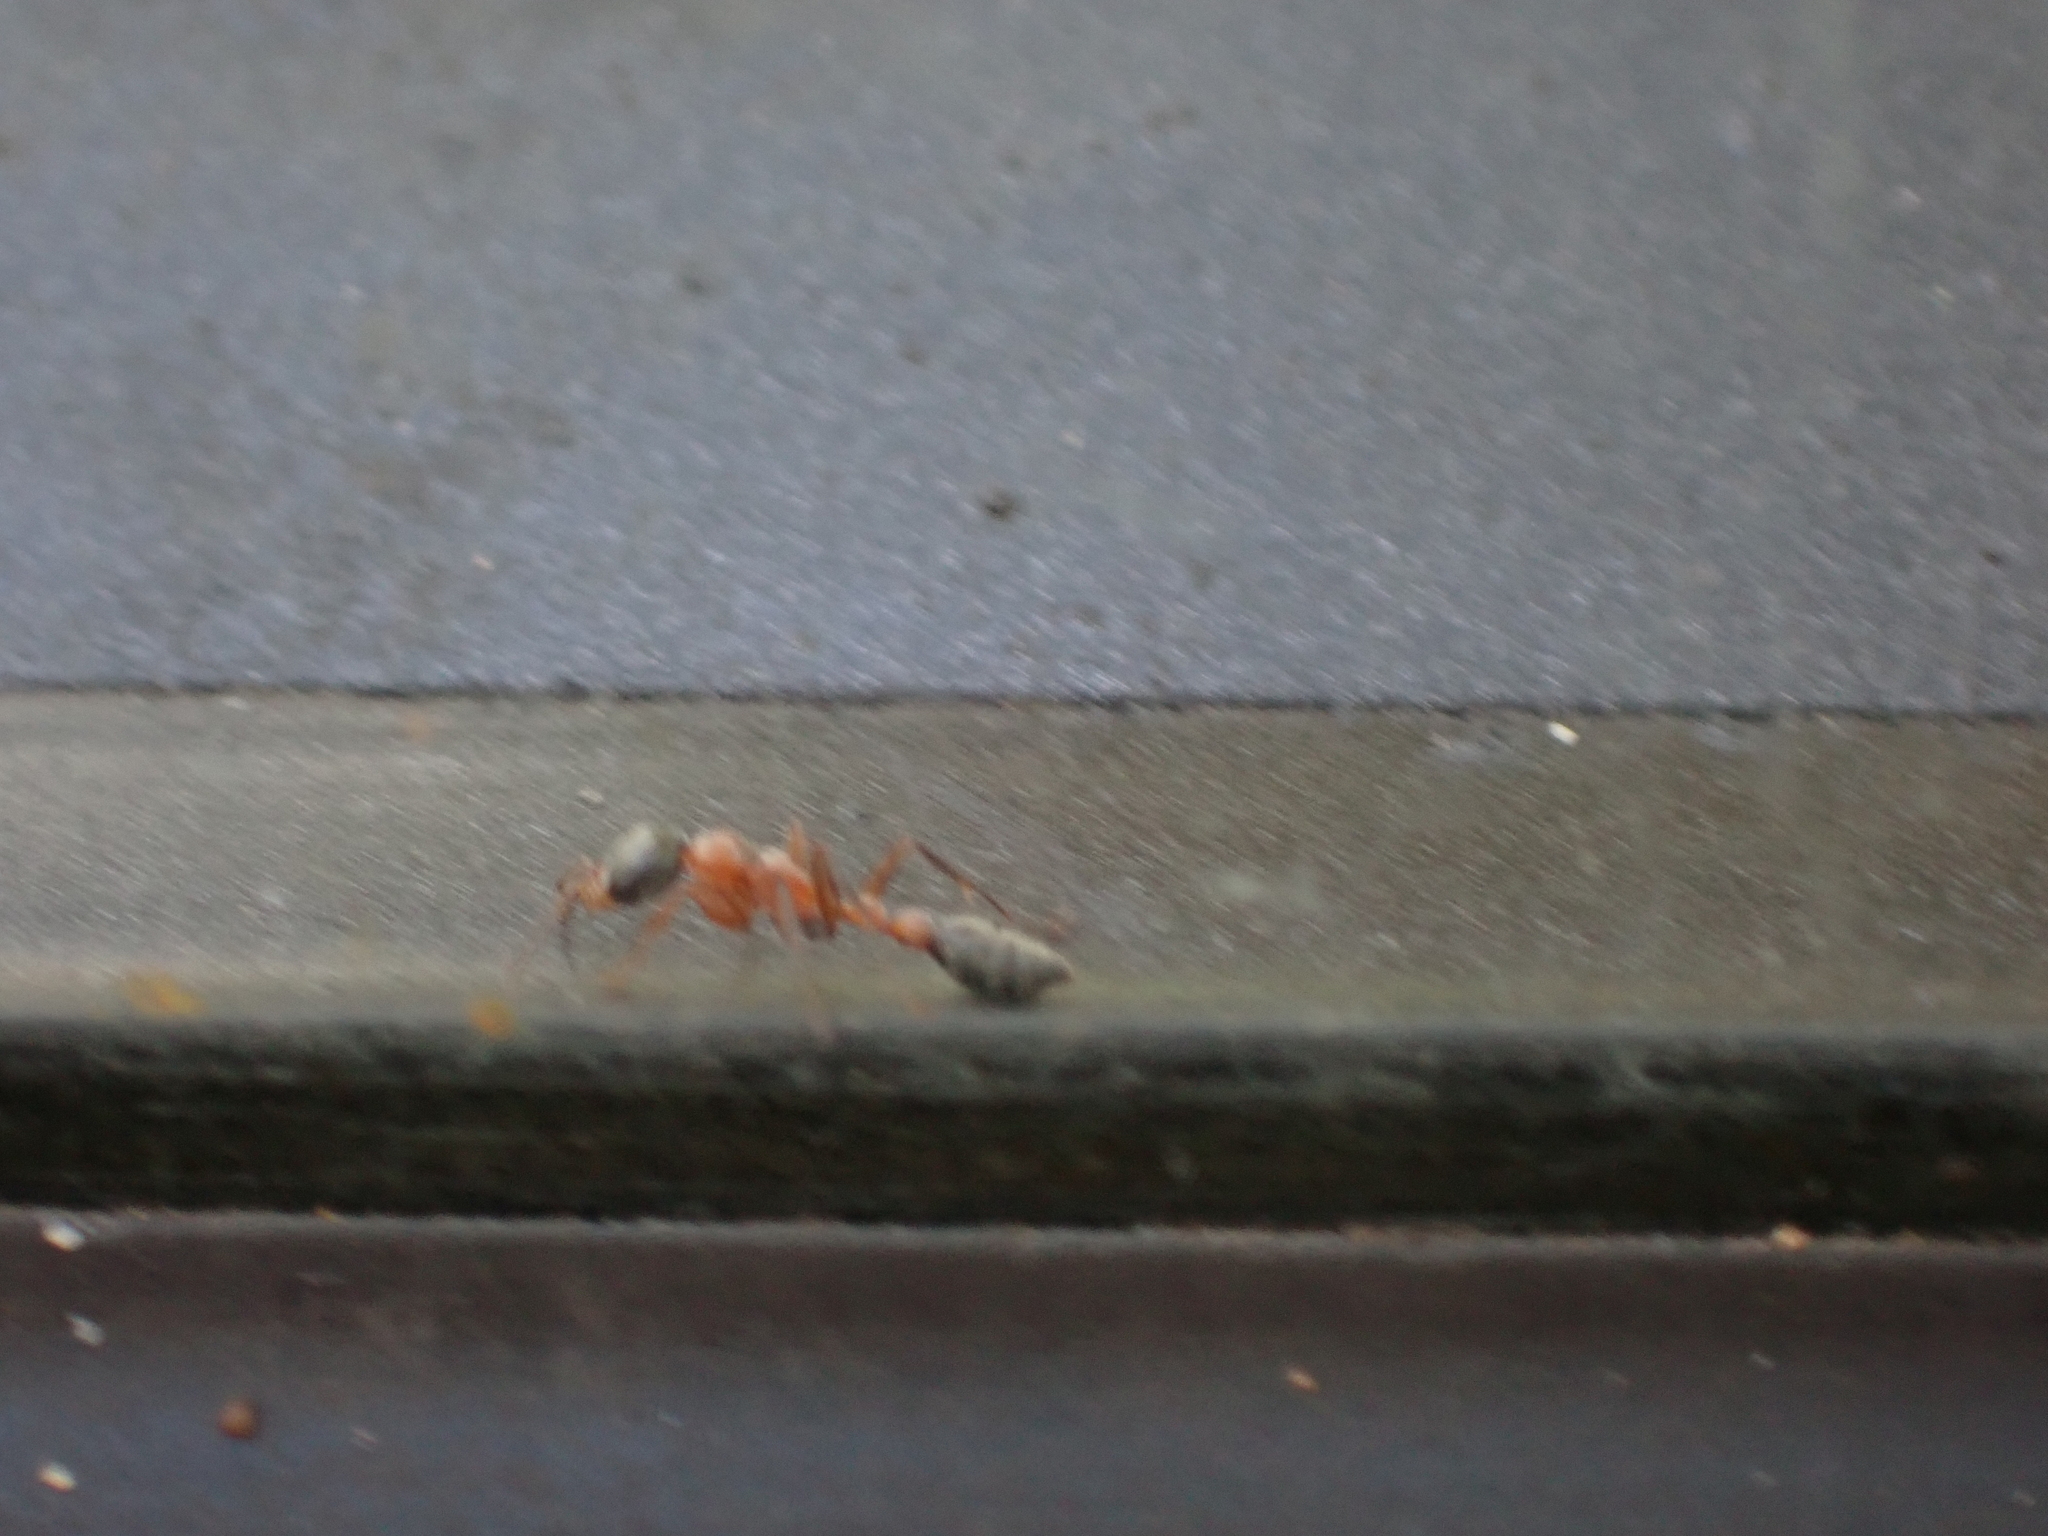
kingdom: Animalia
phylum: Arthropoda
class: Insecta
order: Hymenoptera
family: Formicidae
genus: Pseudomyrmex
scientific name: Pseudomyrmex gracilis
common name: Graceful twig ant
